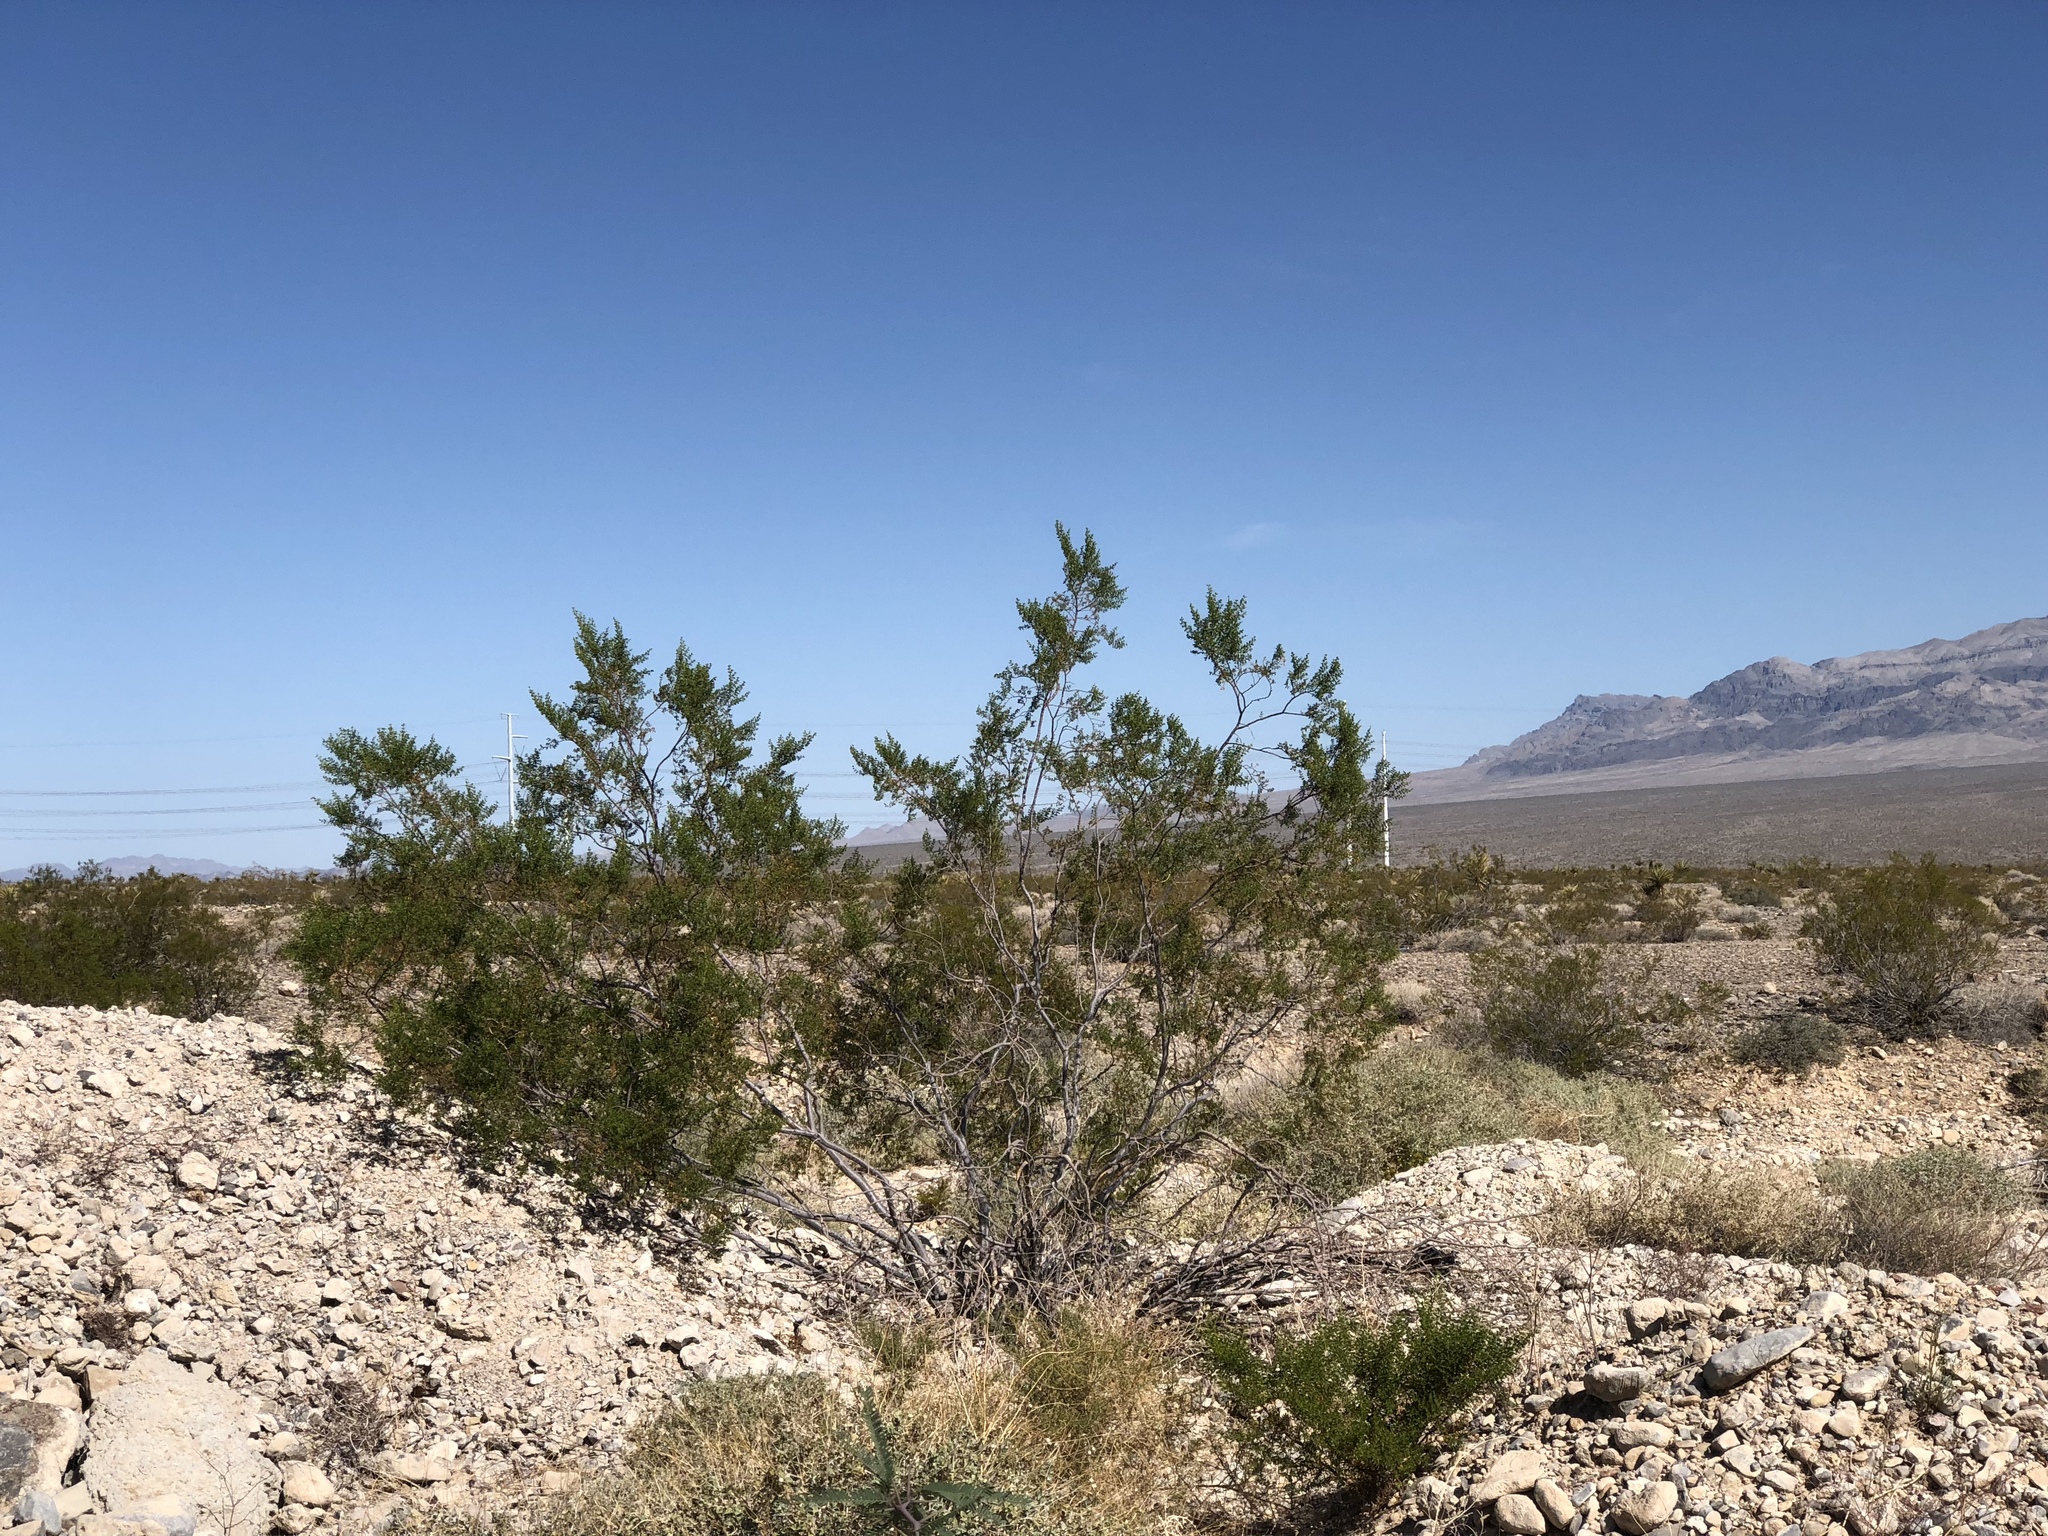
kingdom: Plantae
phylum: Tracheophyta
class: Magnoliopsida
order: Zygophyllales
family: Zygophyllaceae
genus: Larrea
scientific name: Larrea tridentata
